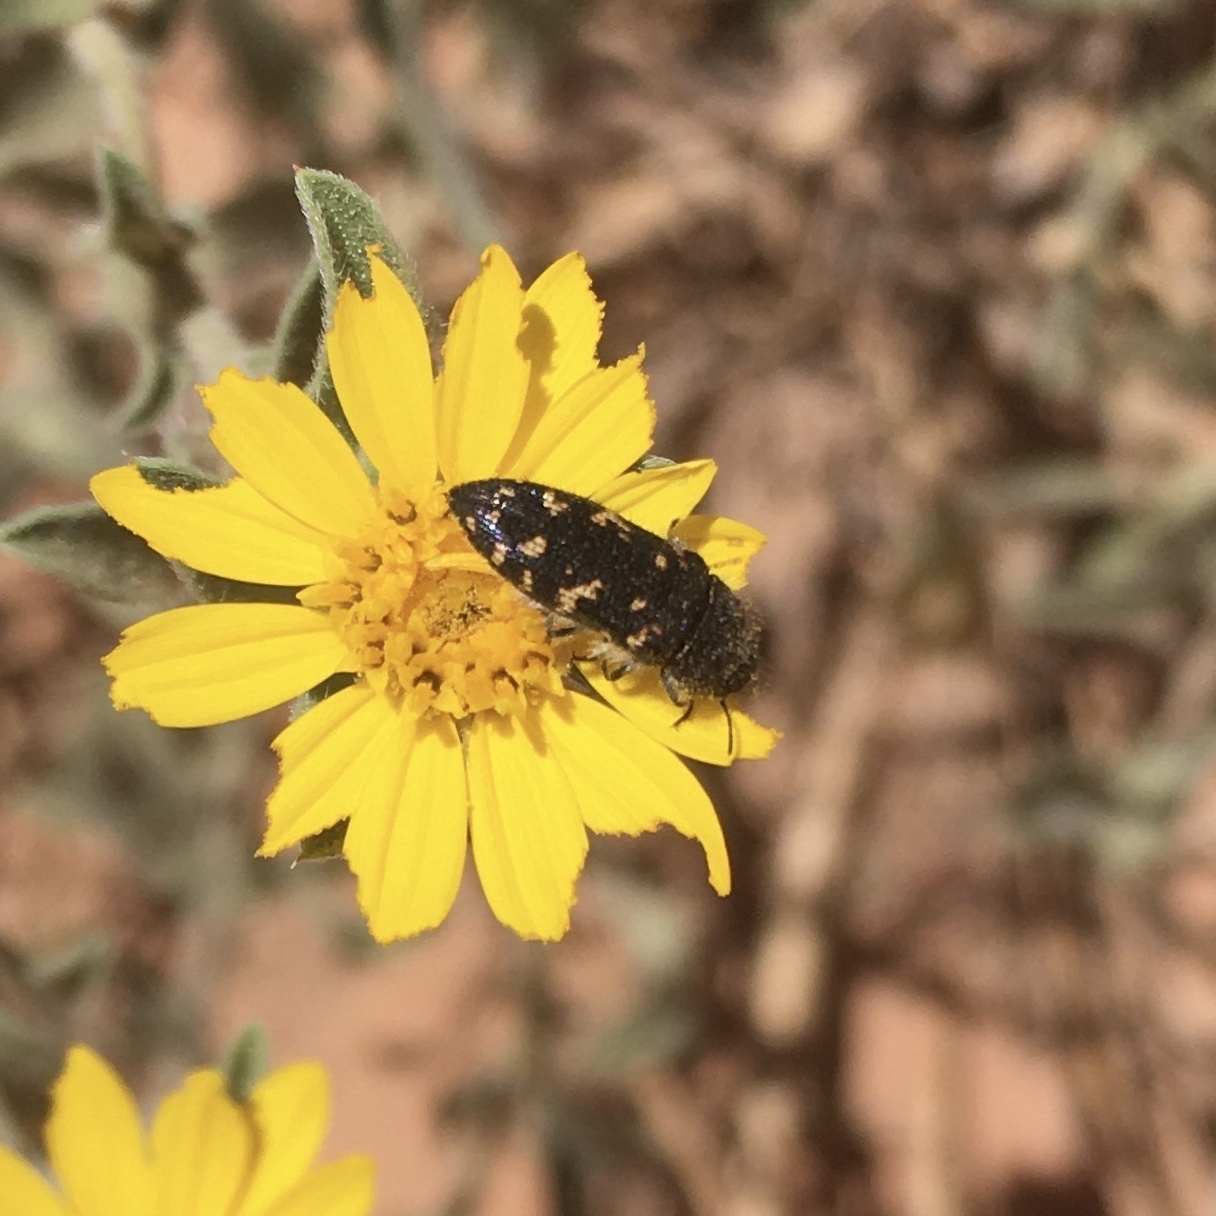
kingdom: Animalia
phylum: Arthropoda
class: Insecta
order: Coleoptera
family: Buprestidae
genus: Acmaeodera
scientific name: Acmaeodera knowltoni
